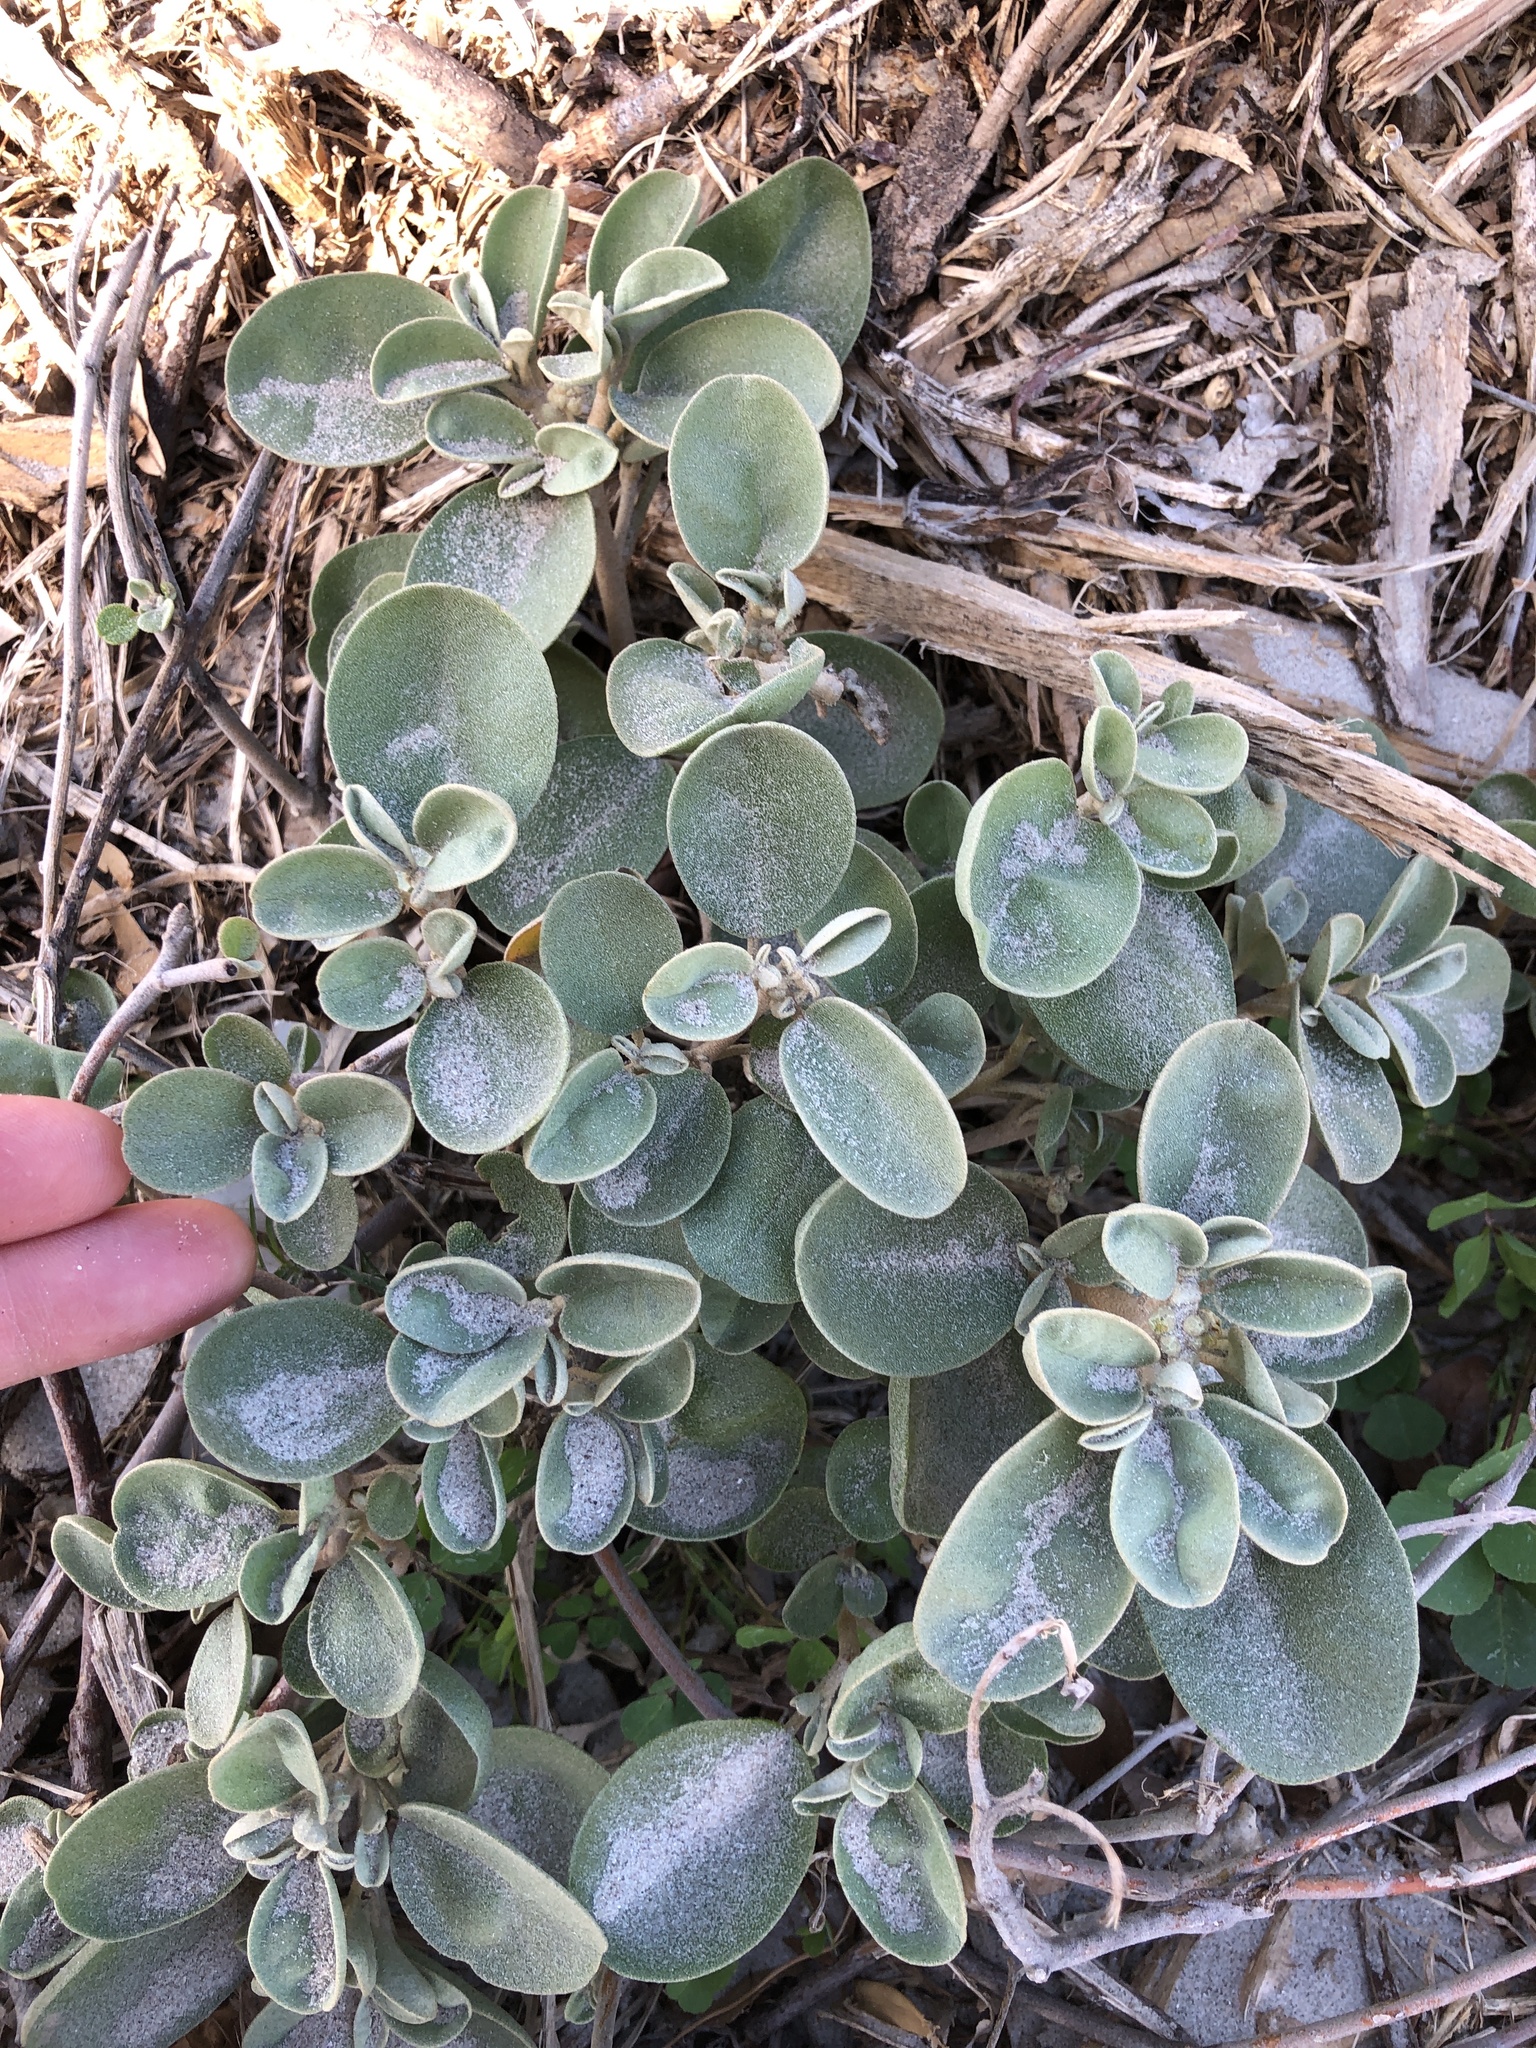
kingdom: Plantae
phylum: Tracheophyta
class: Magnoliopsida
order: Malpighiales
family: Euphorbiaceae
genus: Croton
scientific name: Croton punctatus
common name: Beach-tea
